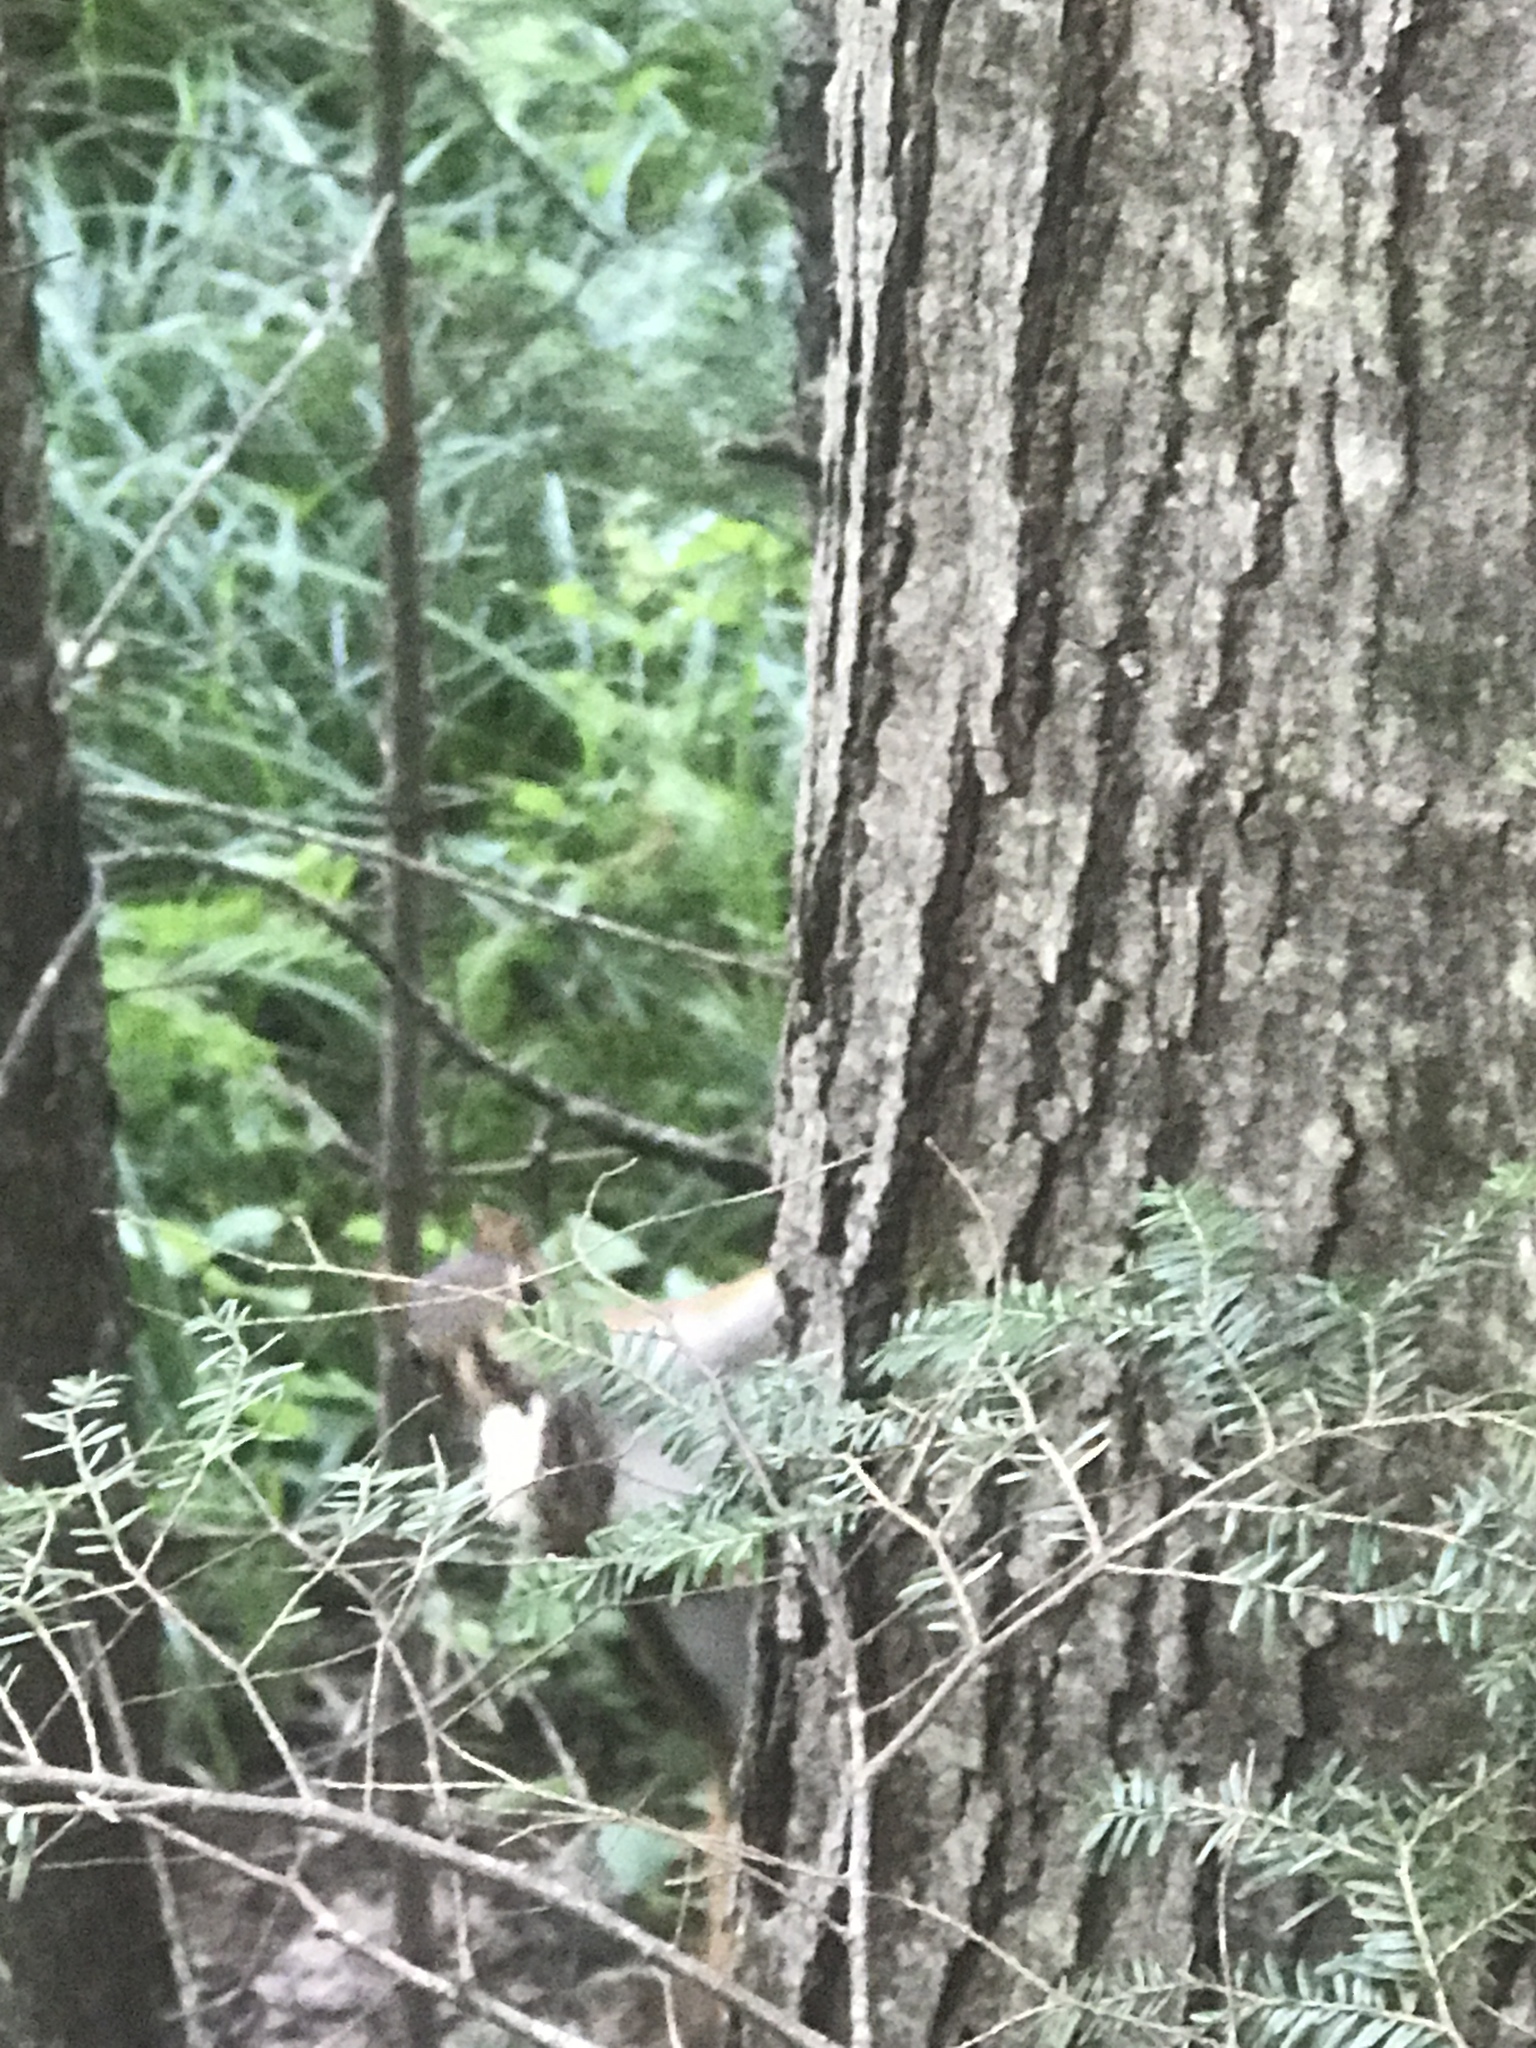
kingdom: Animalia
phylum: Chordata
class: Mammalia
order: Rodentia
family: Sciuridae
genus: Tamiasciurus
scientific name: Tamiasciurus hudsonicus
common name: Red squirrel
